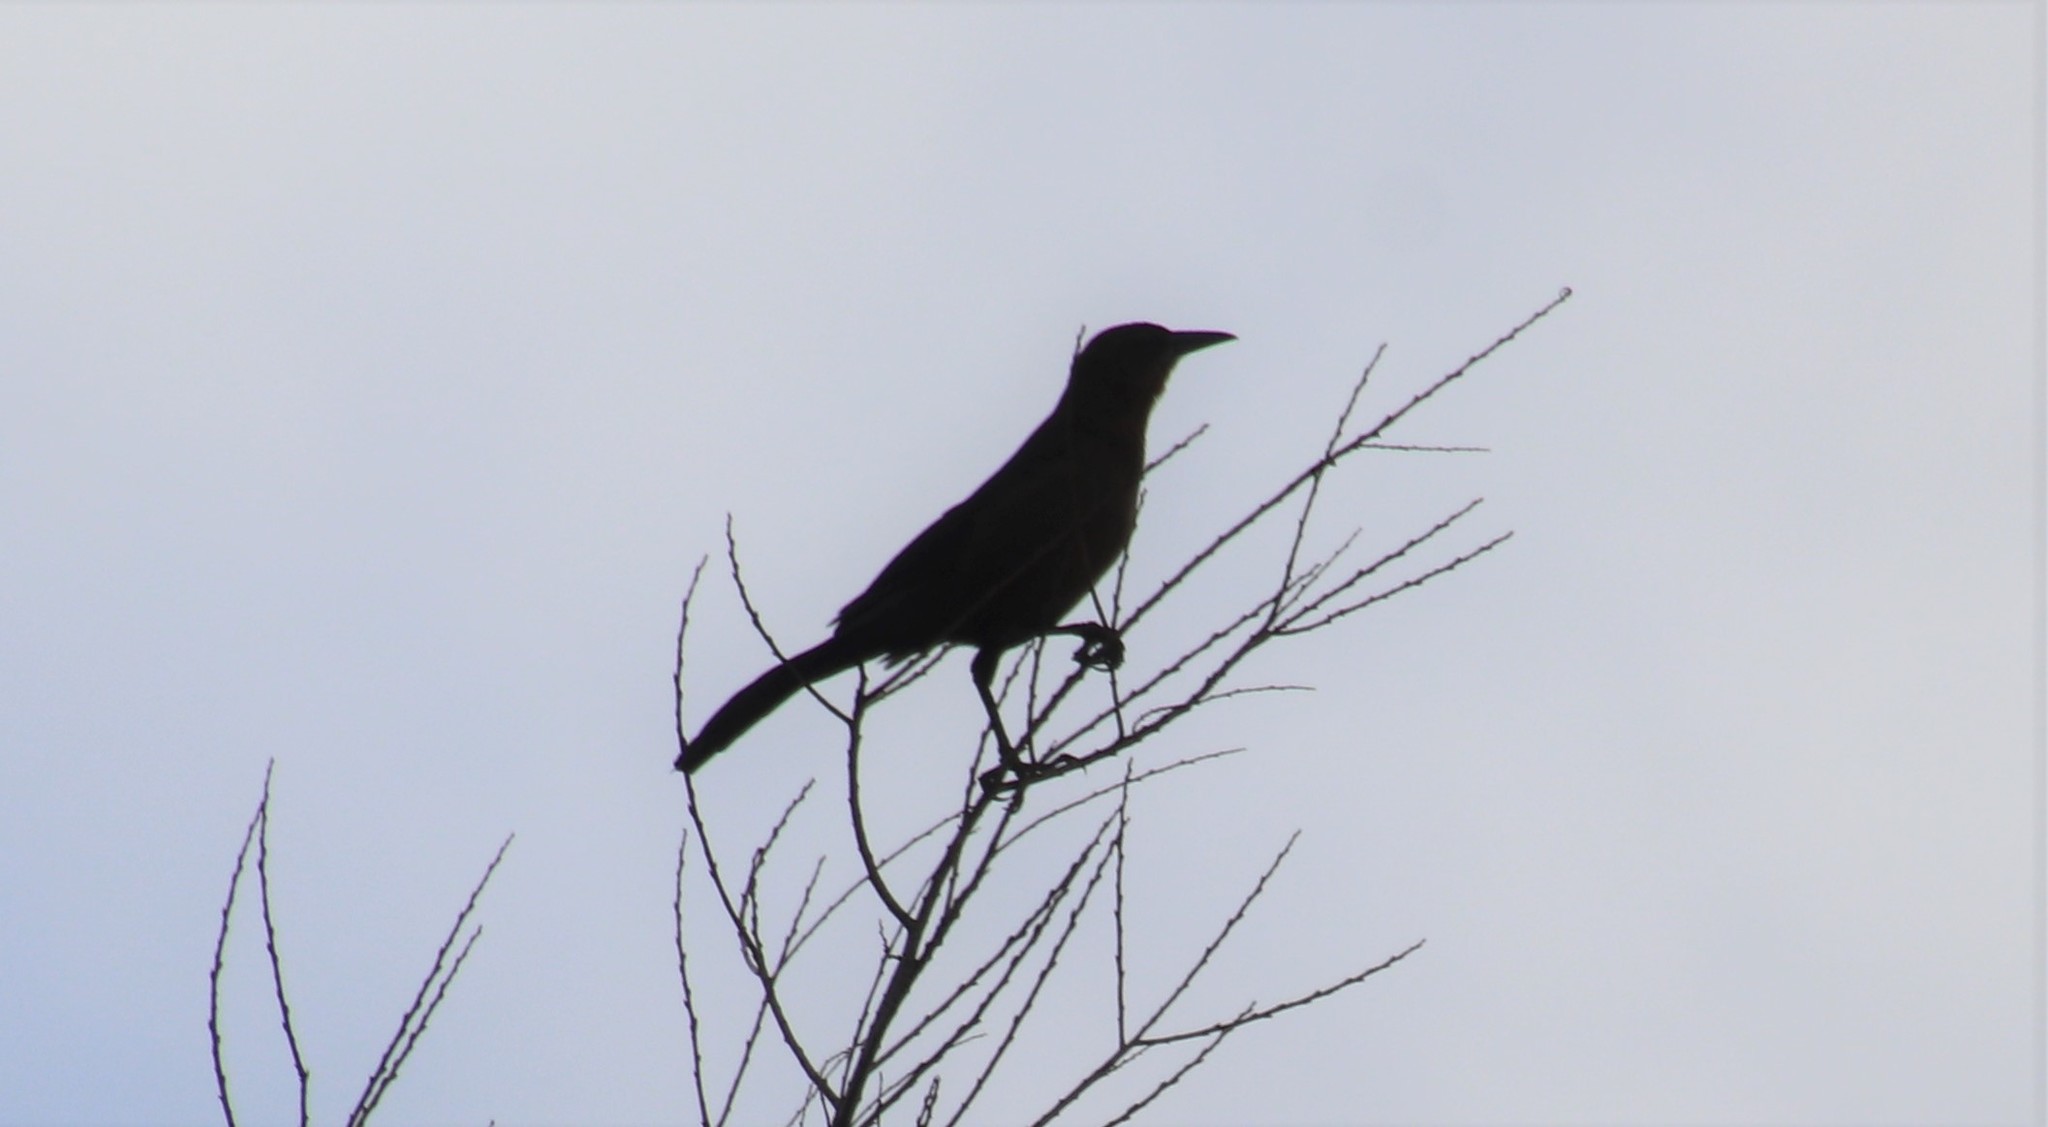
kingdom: Animalia
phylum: Chordata
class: Aves
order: Passeriformes
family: Icteridae
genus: Quiscalus
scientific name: Quiscalus mexicanus
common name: Great-tailed grackle
